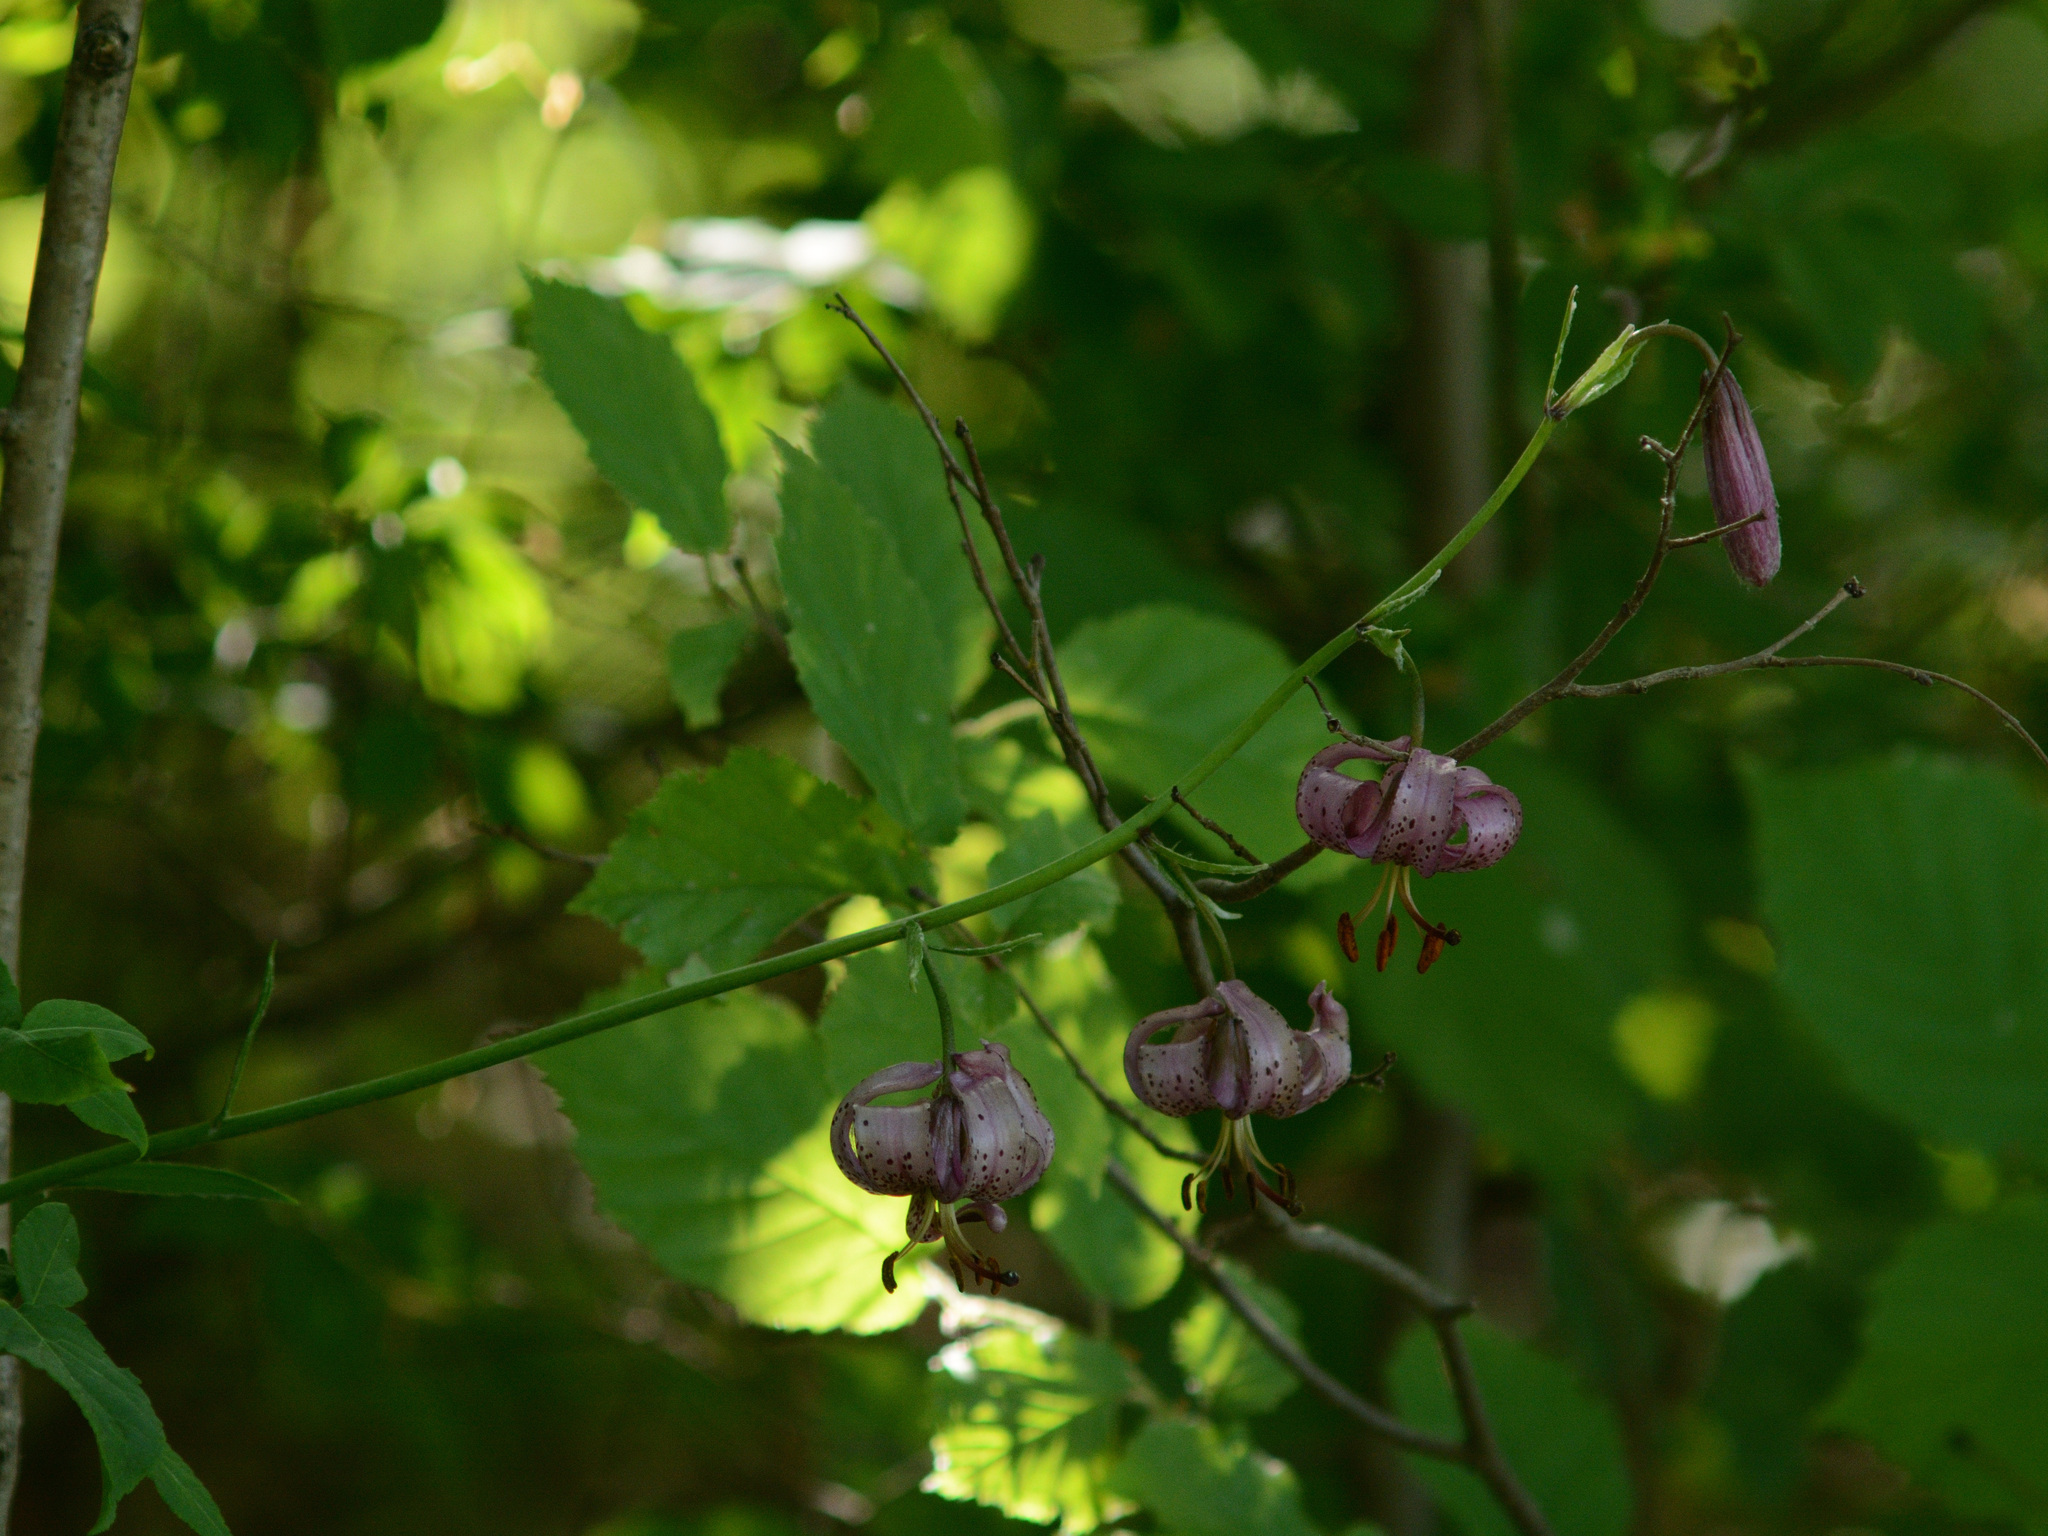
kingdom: Plantae
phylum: Tracheophyta
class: Liliopsida
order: Liliales
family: Liliaceae
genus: Lilium
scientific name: Lilium martagon
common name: Martagon lily
